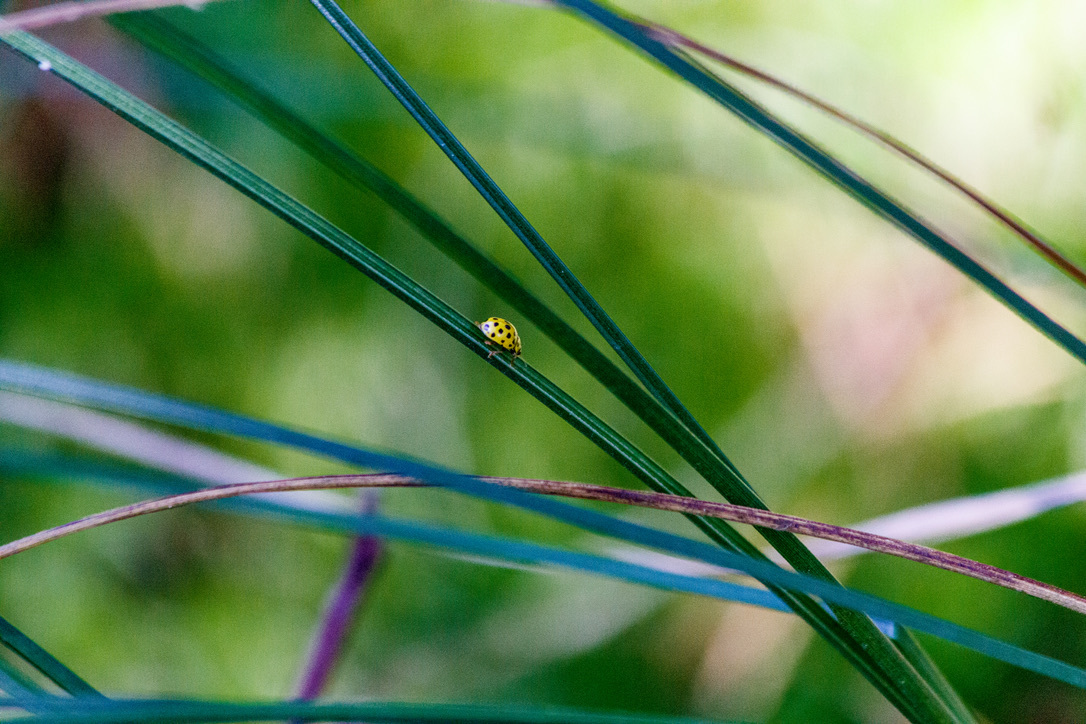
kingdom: Animalia
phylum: Arthropoda
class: Insecta
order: Coleoptera
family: Coccinellidae
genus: Psyllobora
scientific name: Psyllobora vigintiduopunctata
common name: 22-spot ladybird
